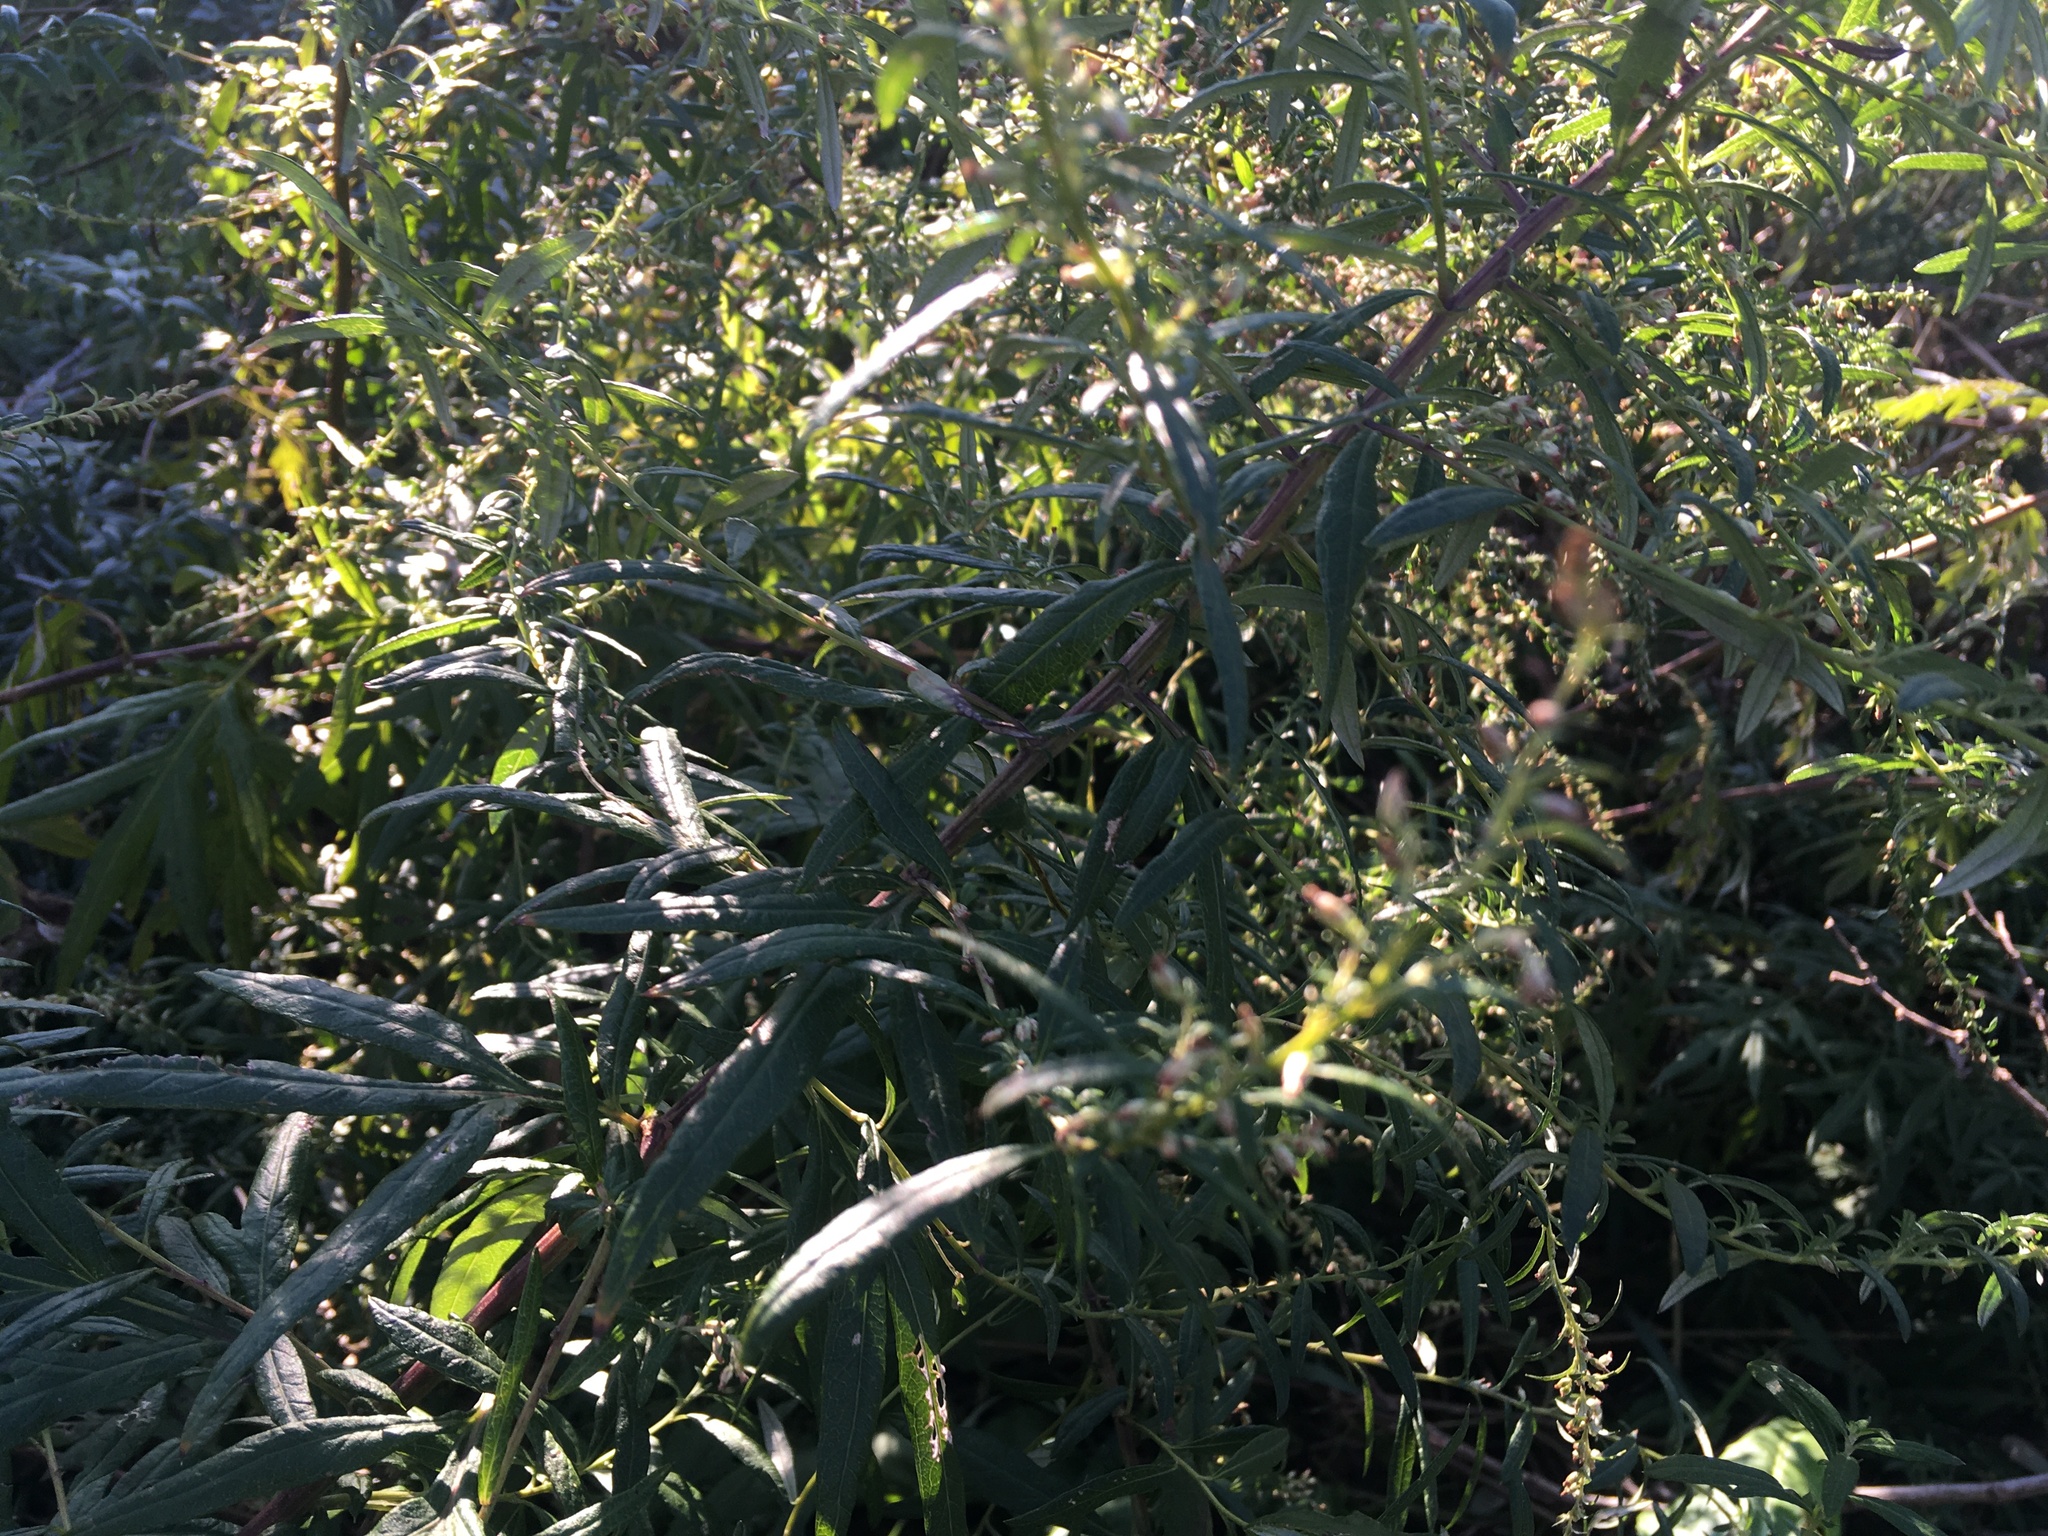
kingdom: Plantae
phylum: Tracheophyta
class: Magnoliopsida
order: Asterales
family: Asteraceae
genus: Artemisia
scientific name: Artemisia vulgaris
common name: Mugwort
